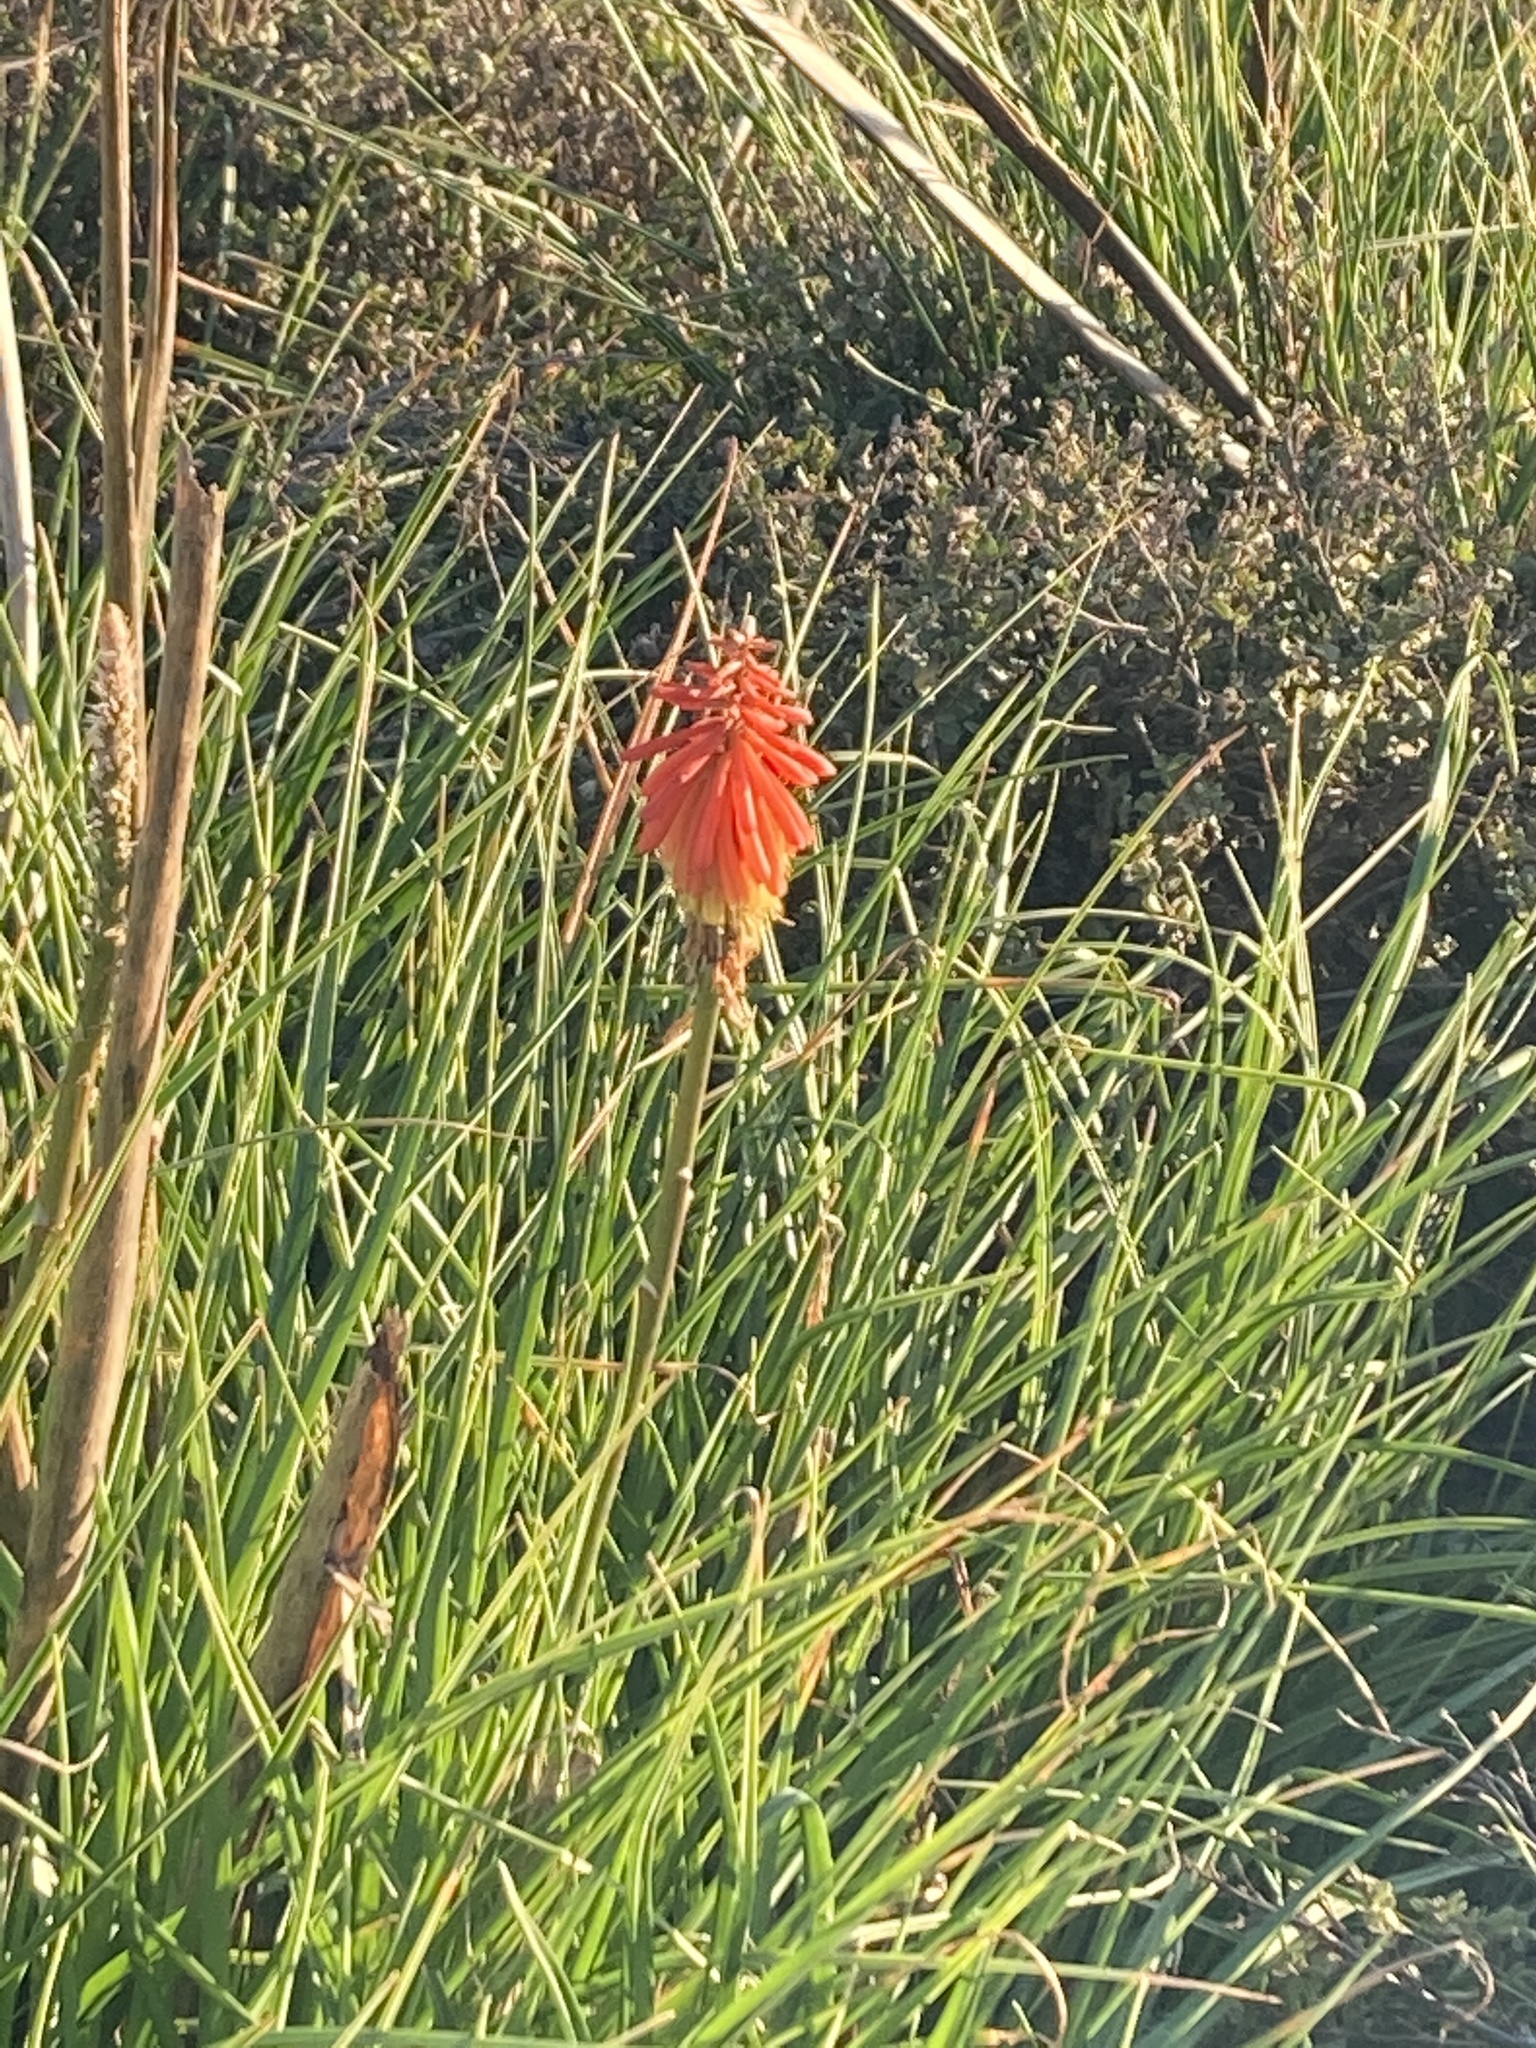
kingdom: Plantae
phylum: Tracheophyta
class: Liliopsida
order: Asparagales
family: Asphodelaceae
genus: Kniphofia
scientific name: Kniphofia uvaria
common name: Red-hot-poker
